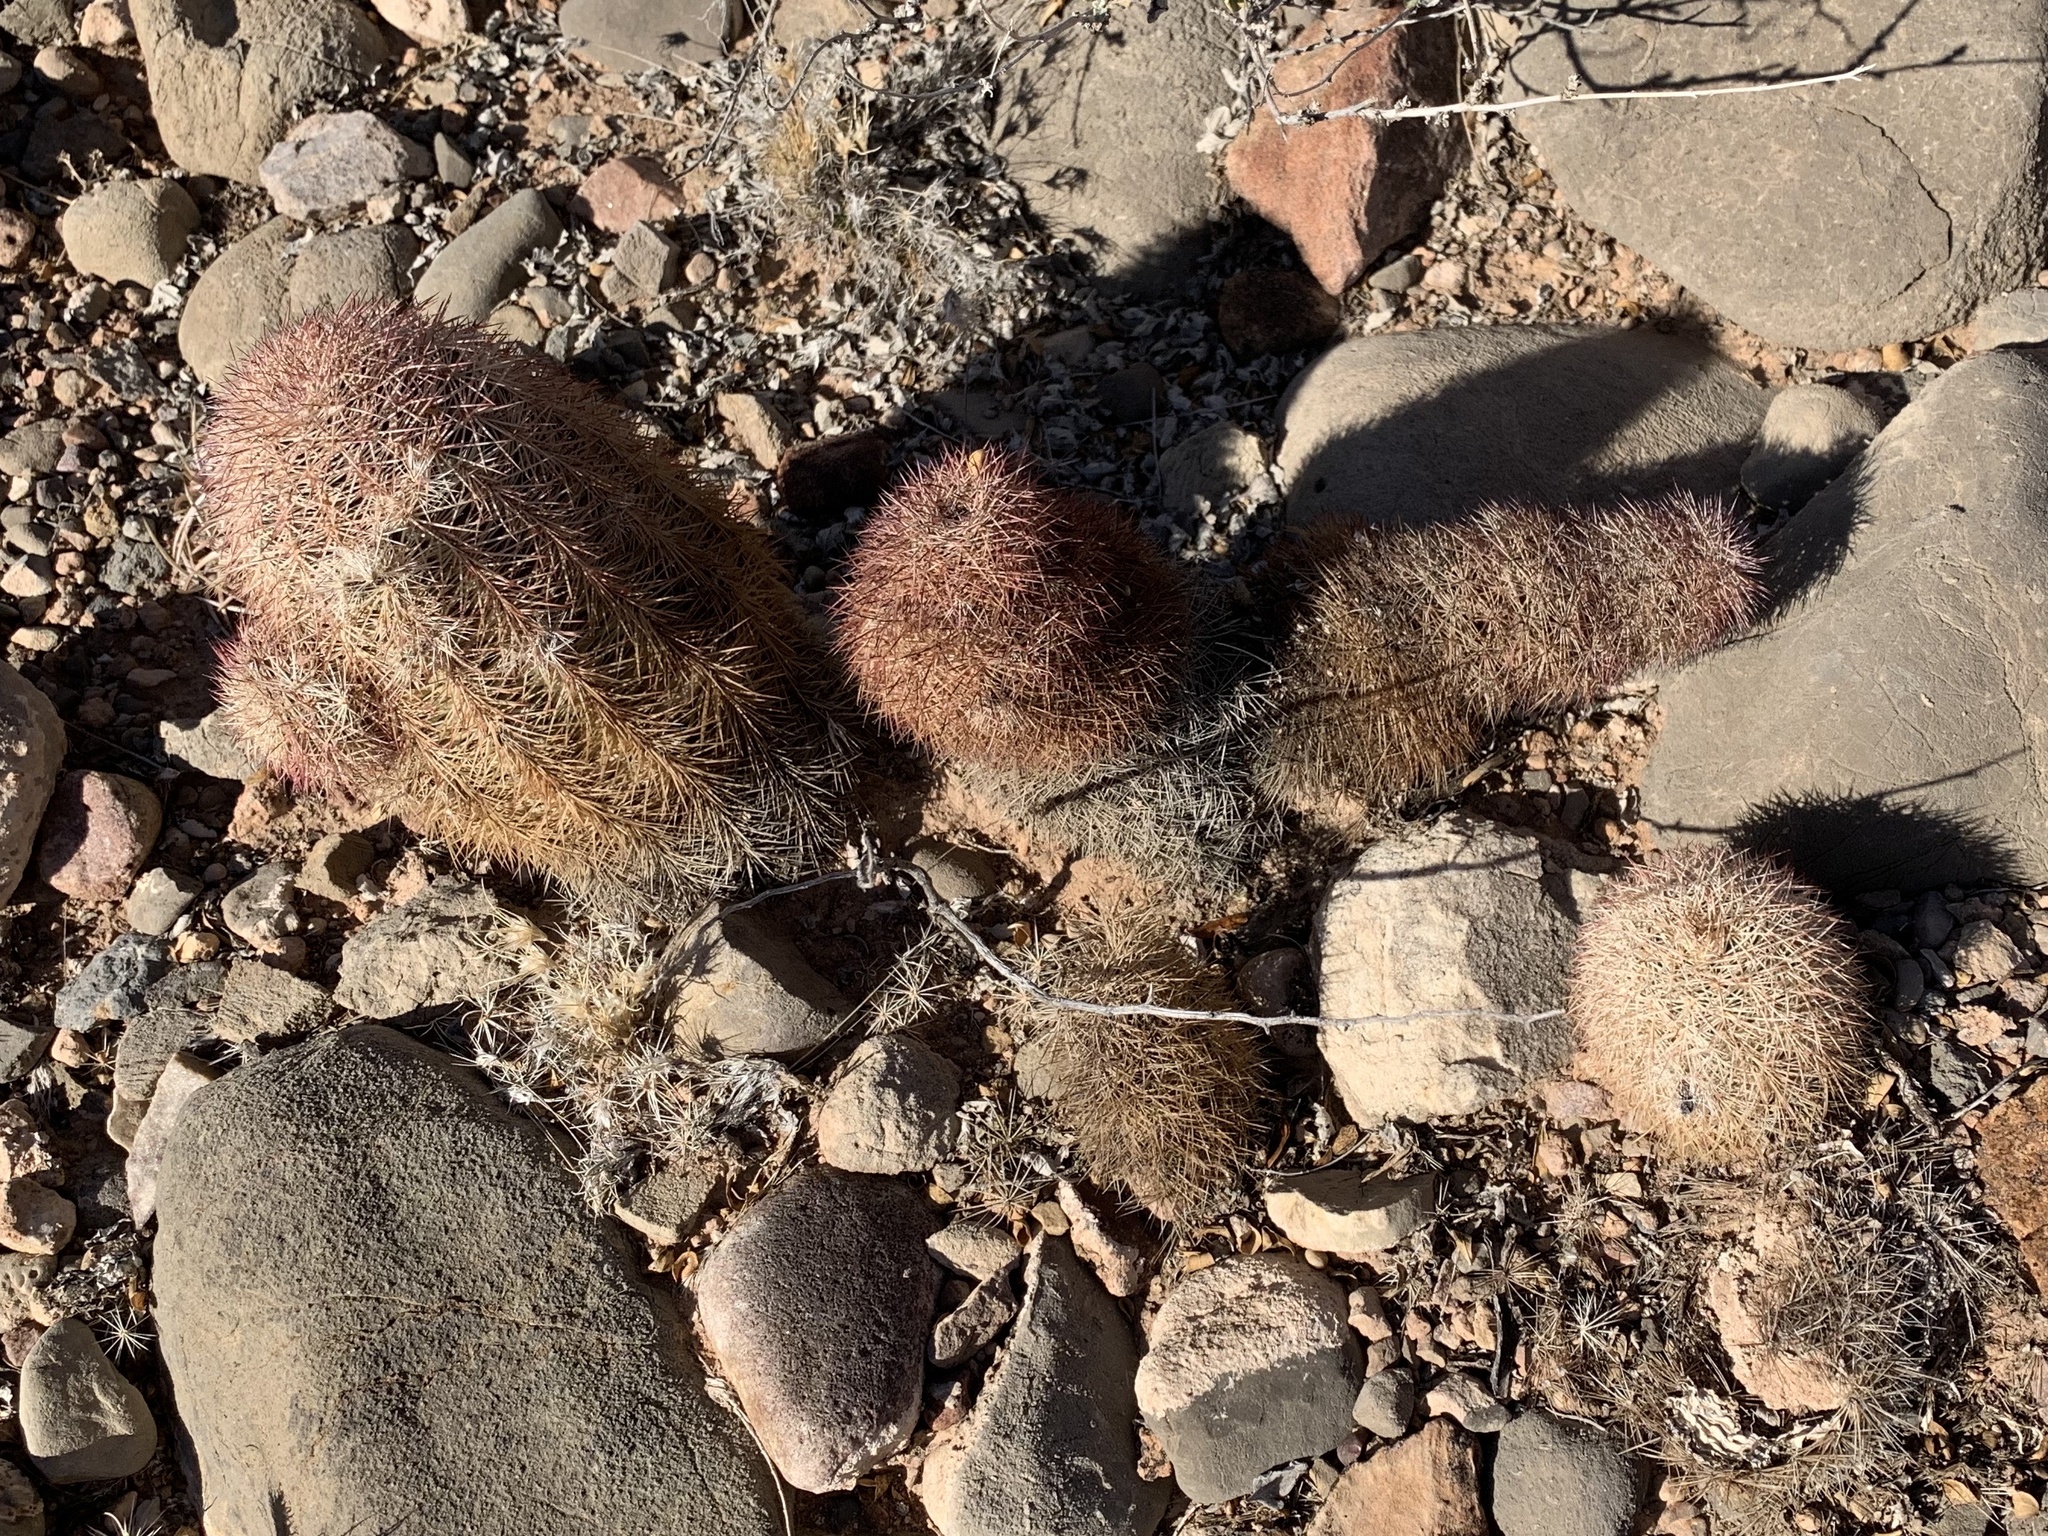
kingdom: Plantae
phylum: Tracheophyta
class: Magnoliopsida
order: Caryophyllales
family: Cactaceae
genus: Echinocereus
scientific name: Echinocereus dasyacanthus
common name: Spiny hedgehog cactus
